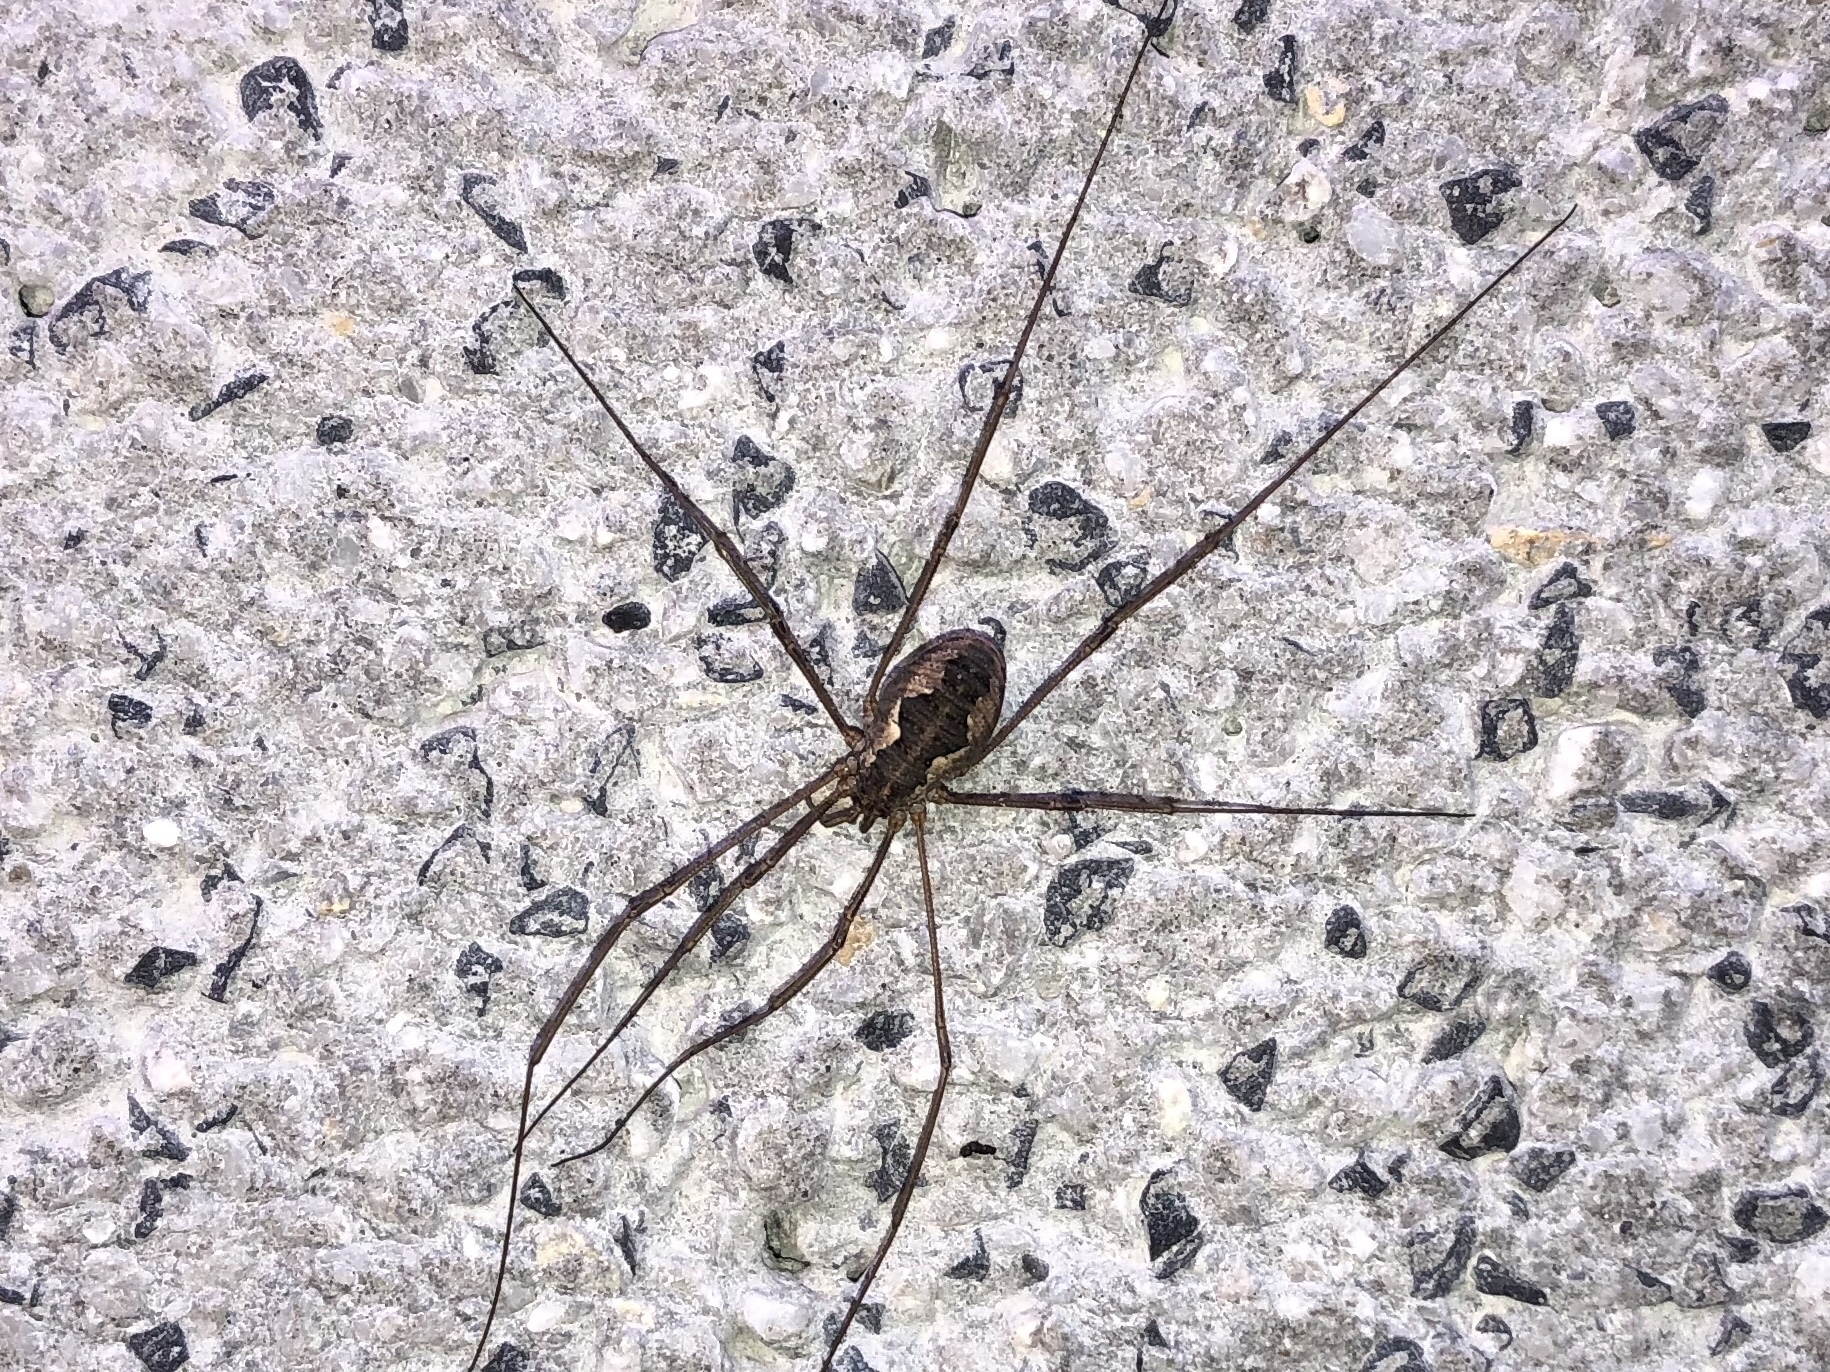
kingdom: Animalia
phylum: Arthropoda
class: Arachnida
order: Opiliones
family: Phalangiidae
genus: Phalangium
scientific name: Phalangium opilio
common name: Daddy longleg
